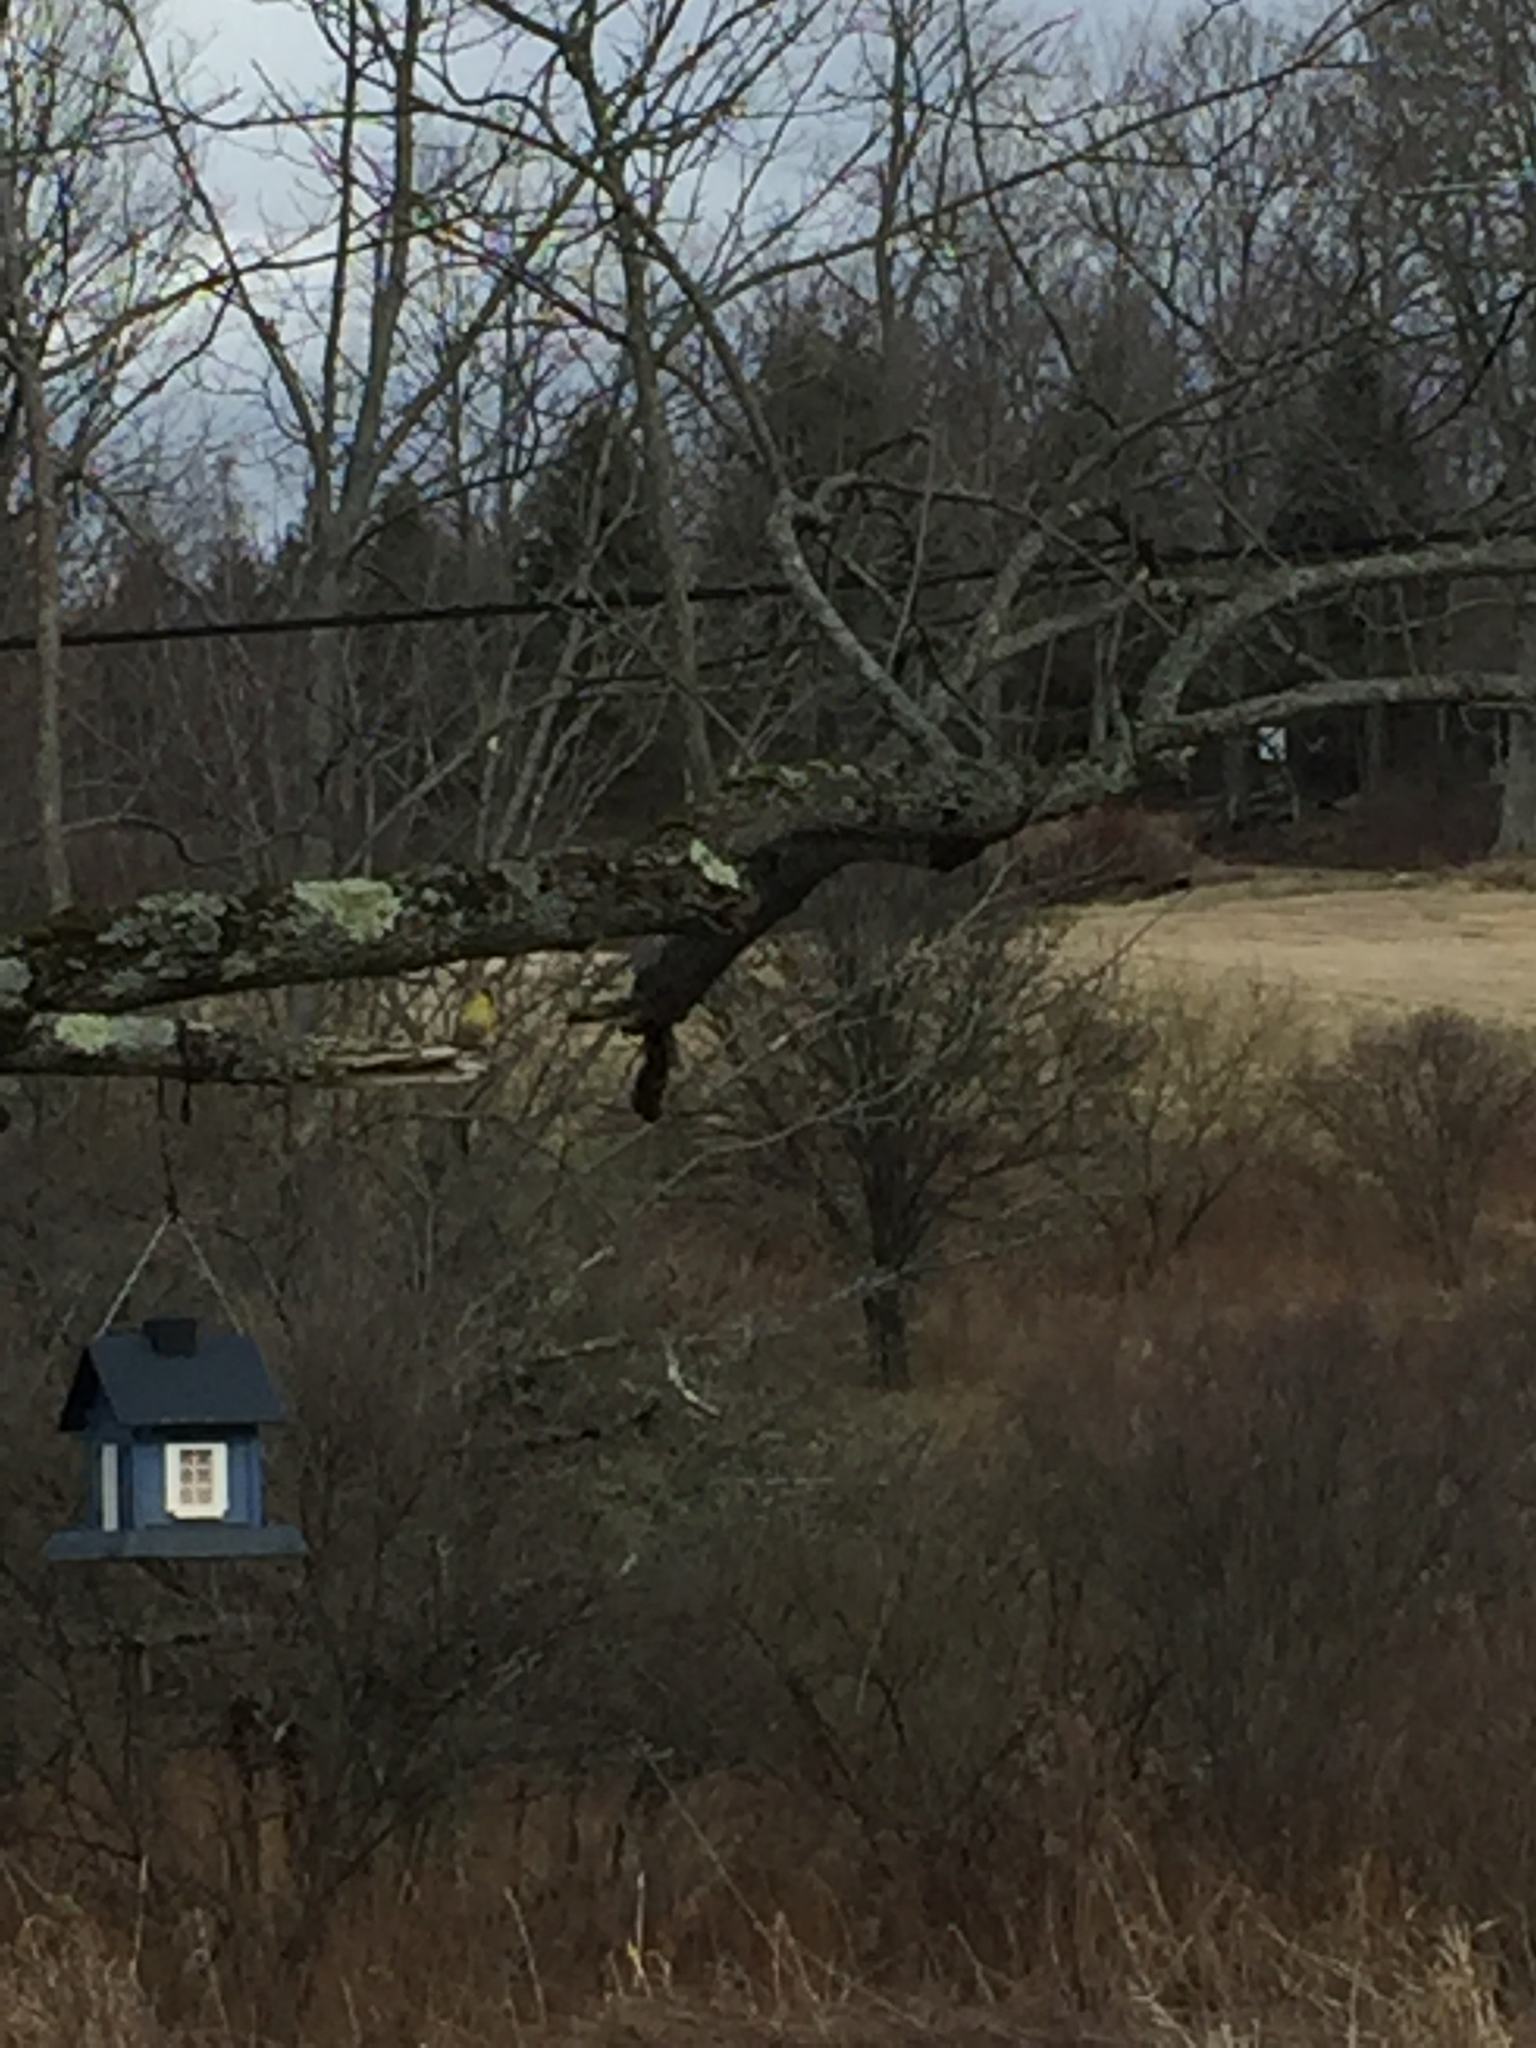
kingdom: Animalia
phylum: Chordata
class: Aves
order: Passeriformes
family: Fringillidae
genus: Spinus
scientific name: Spinus tristis
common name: American goldfinch
